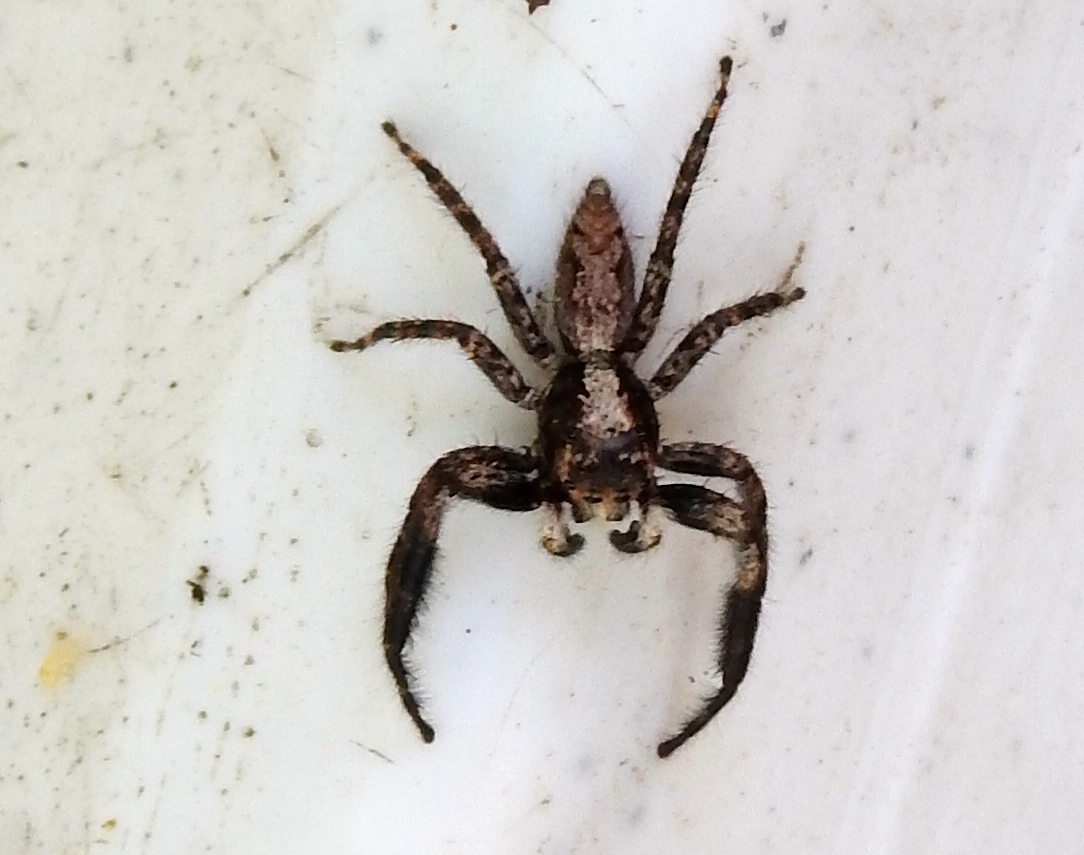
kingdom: Animalia
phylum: Arthropoda
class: Arachnida
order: Araneae
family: Salticidae
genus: Balmaceda
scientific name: Balmaceda
